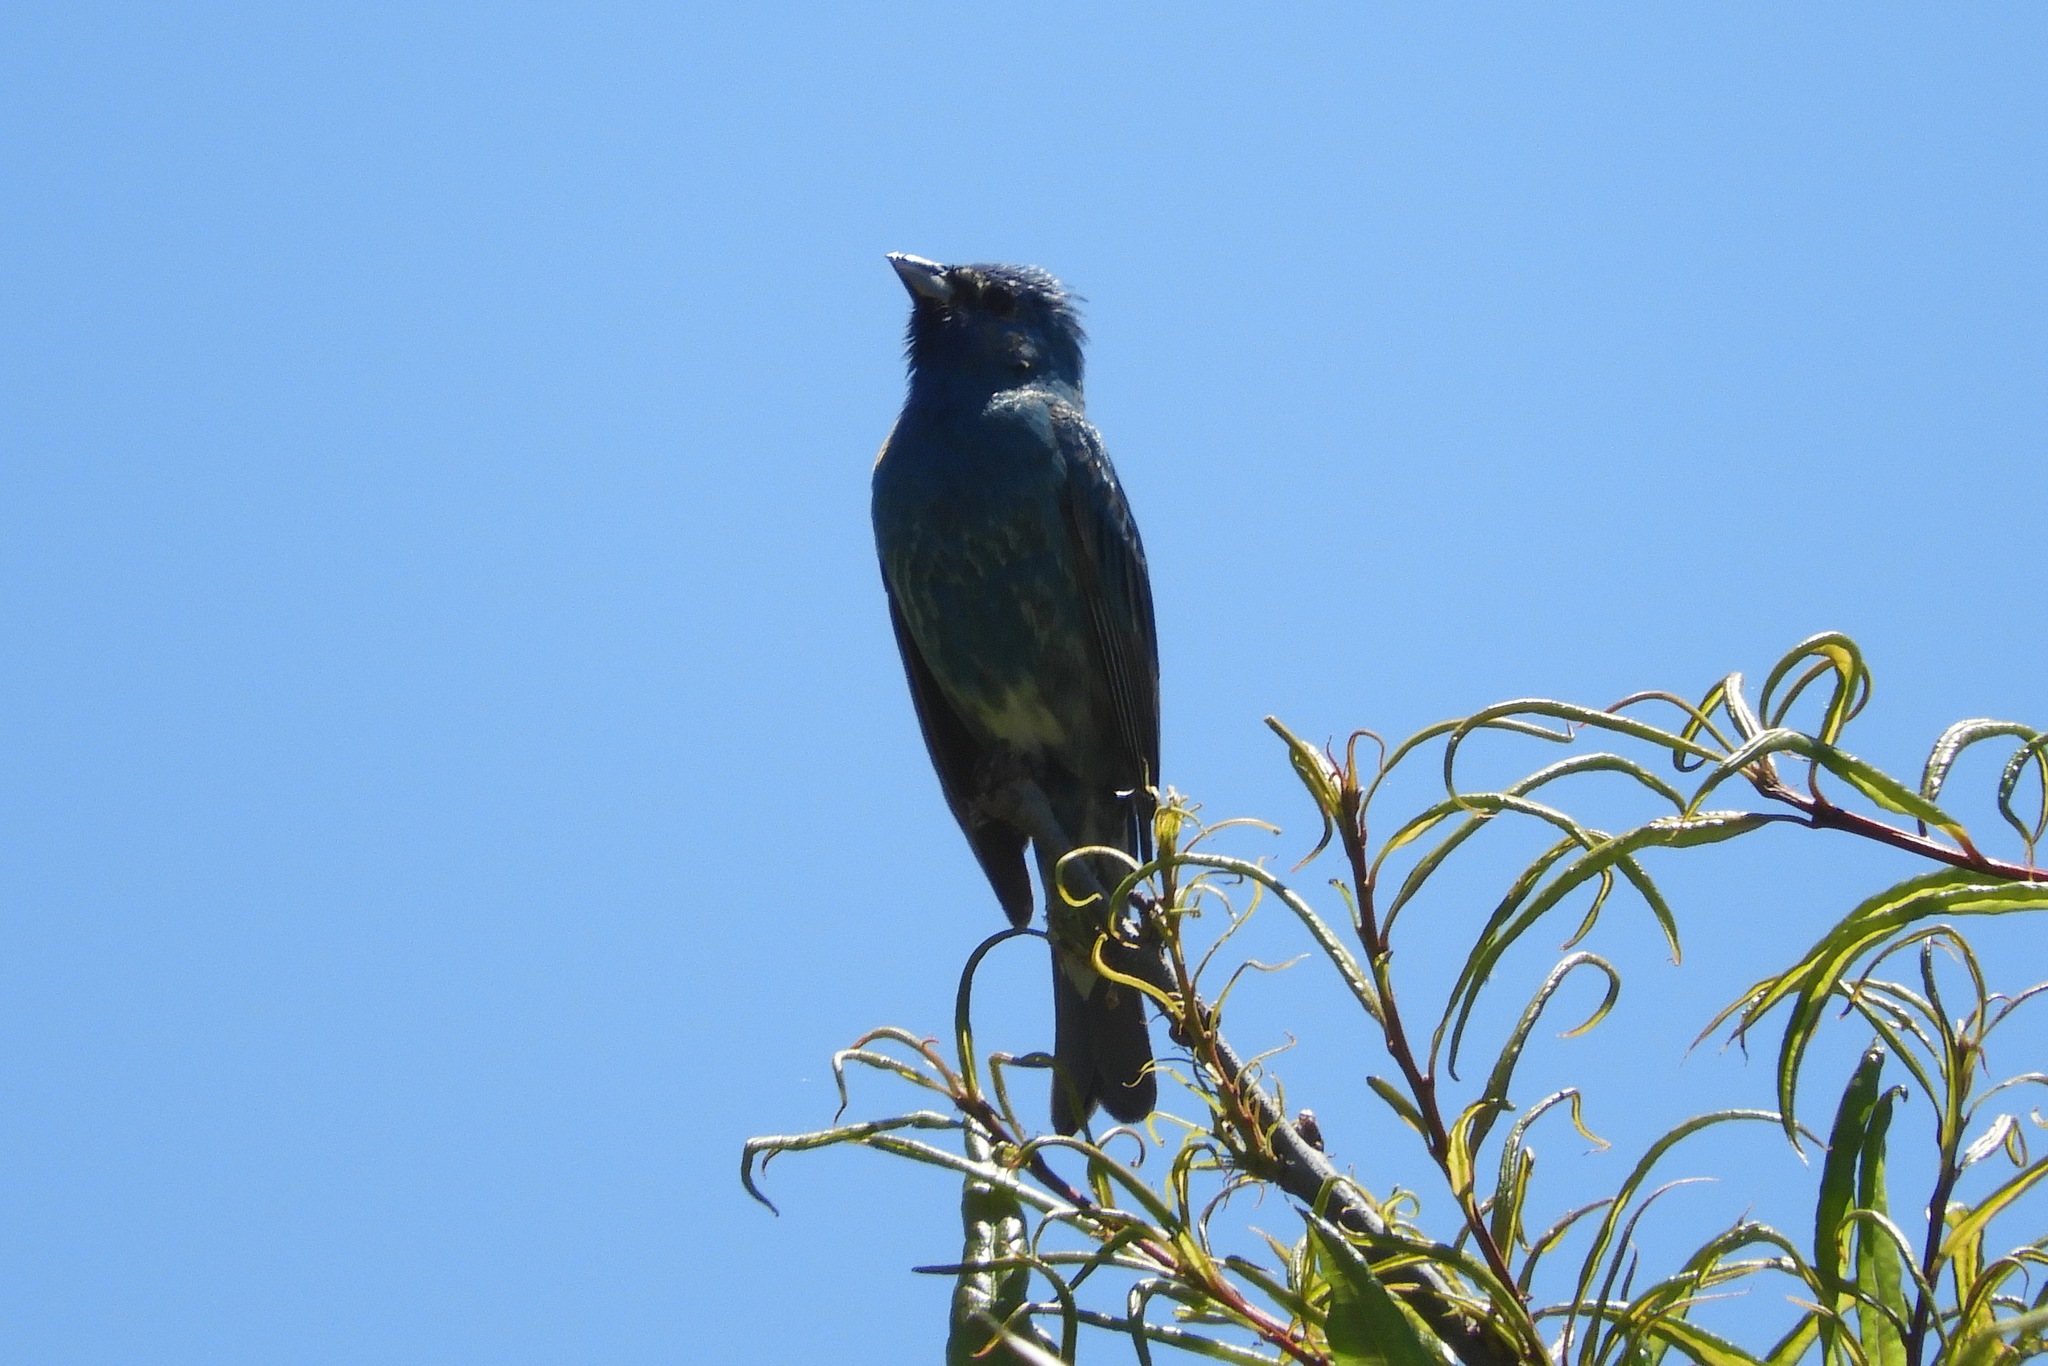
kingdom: Animalia
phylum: Chordata
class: Aves
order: Passeriformes
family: Cardinalidae
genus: Passerina
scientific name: Passerina cyanea
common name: Indigo bunting
